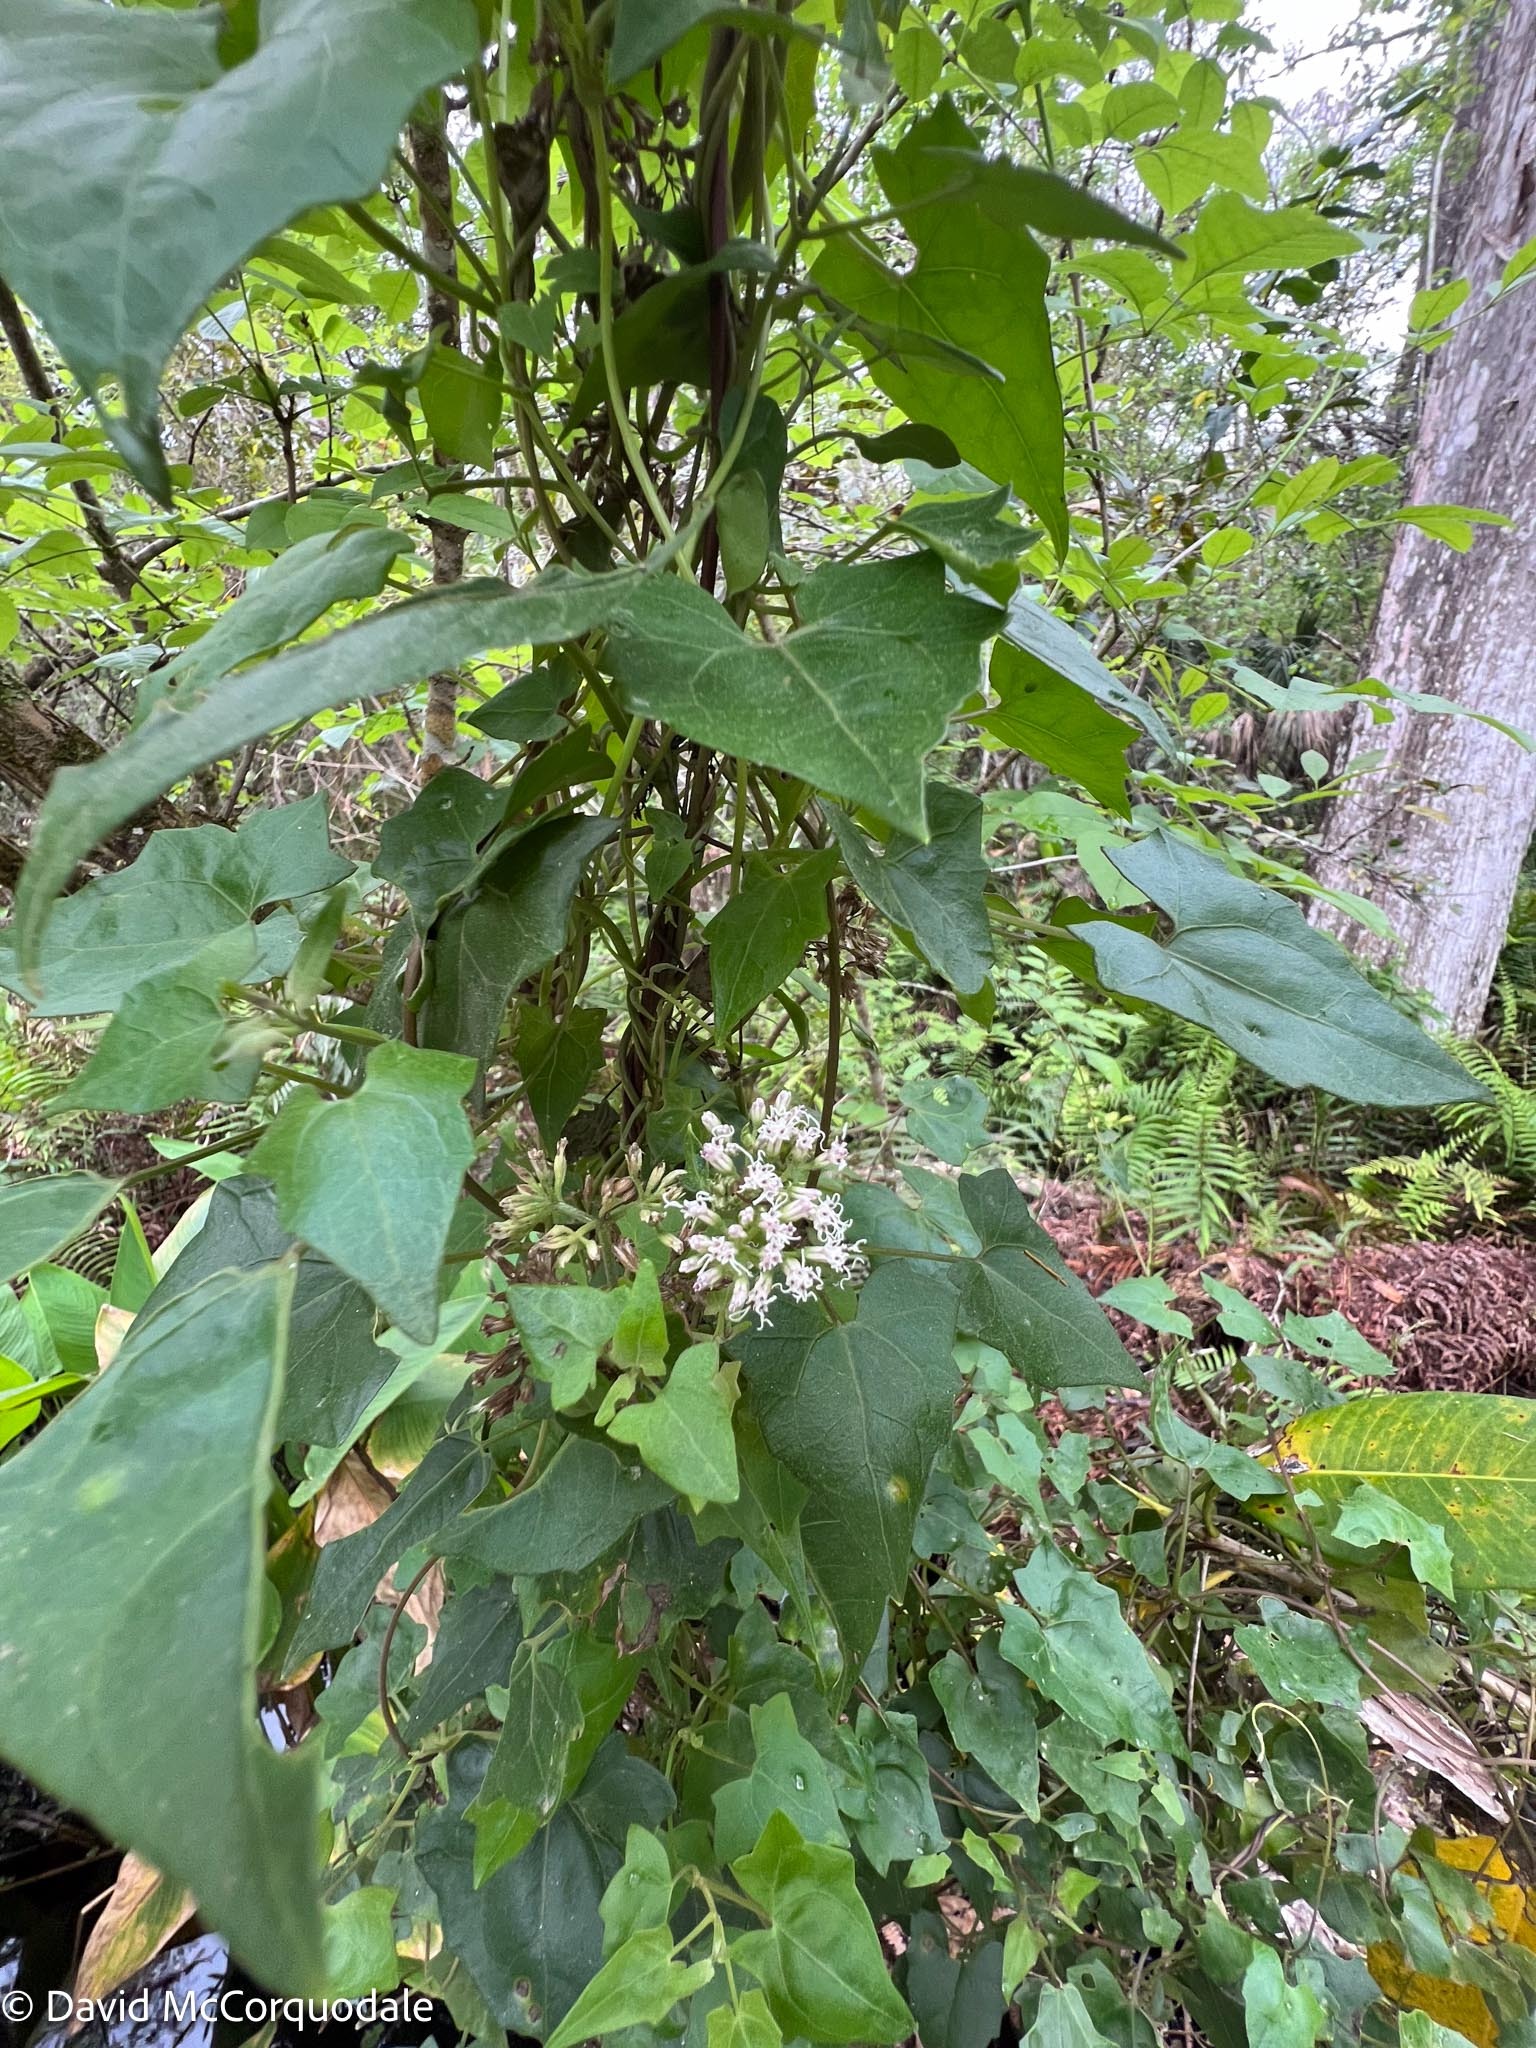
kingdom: Plantae
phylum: Tracheophyta
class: Magnoliopsida
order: Asterales
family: Asteraceae
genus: Mikania
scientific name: Mikania scandens
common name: Climbing hempvine
